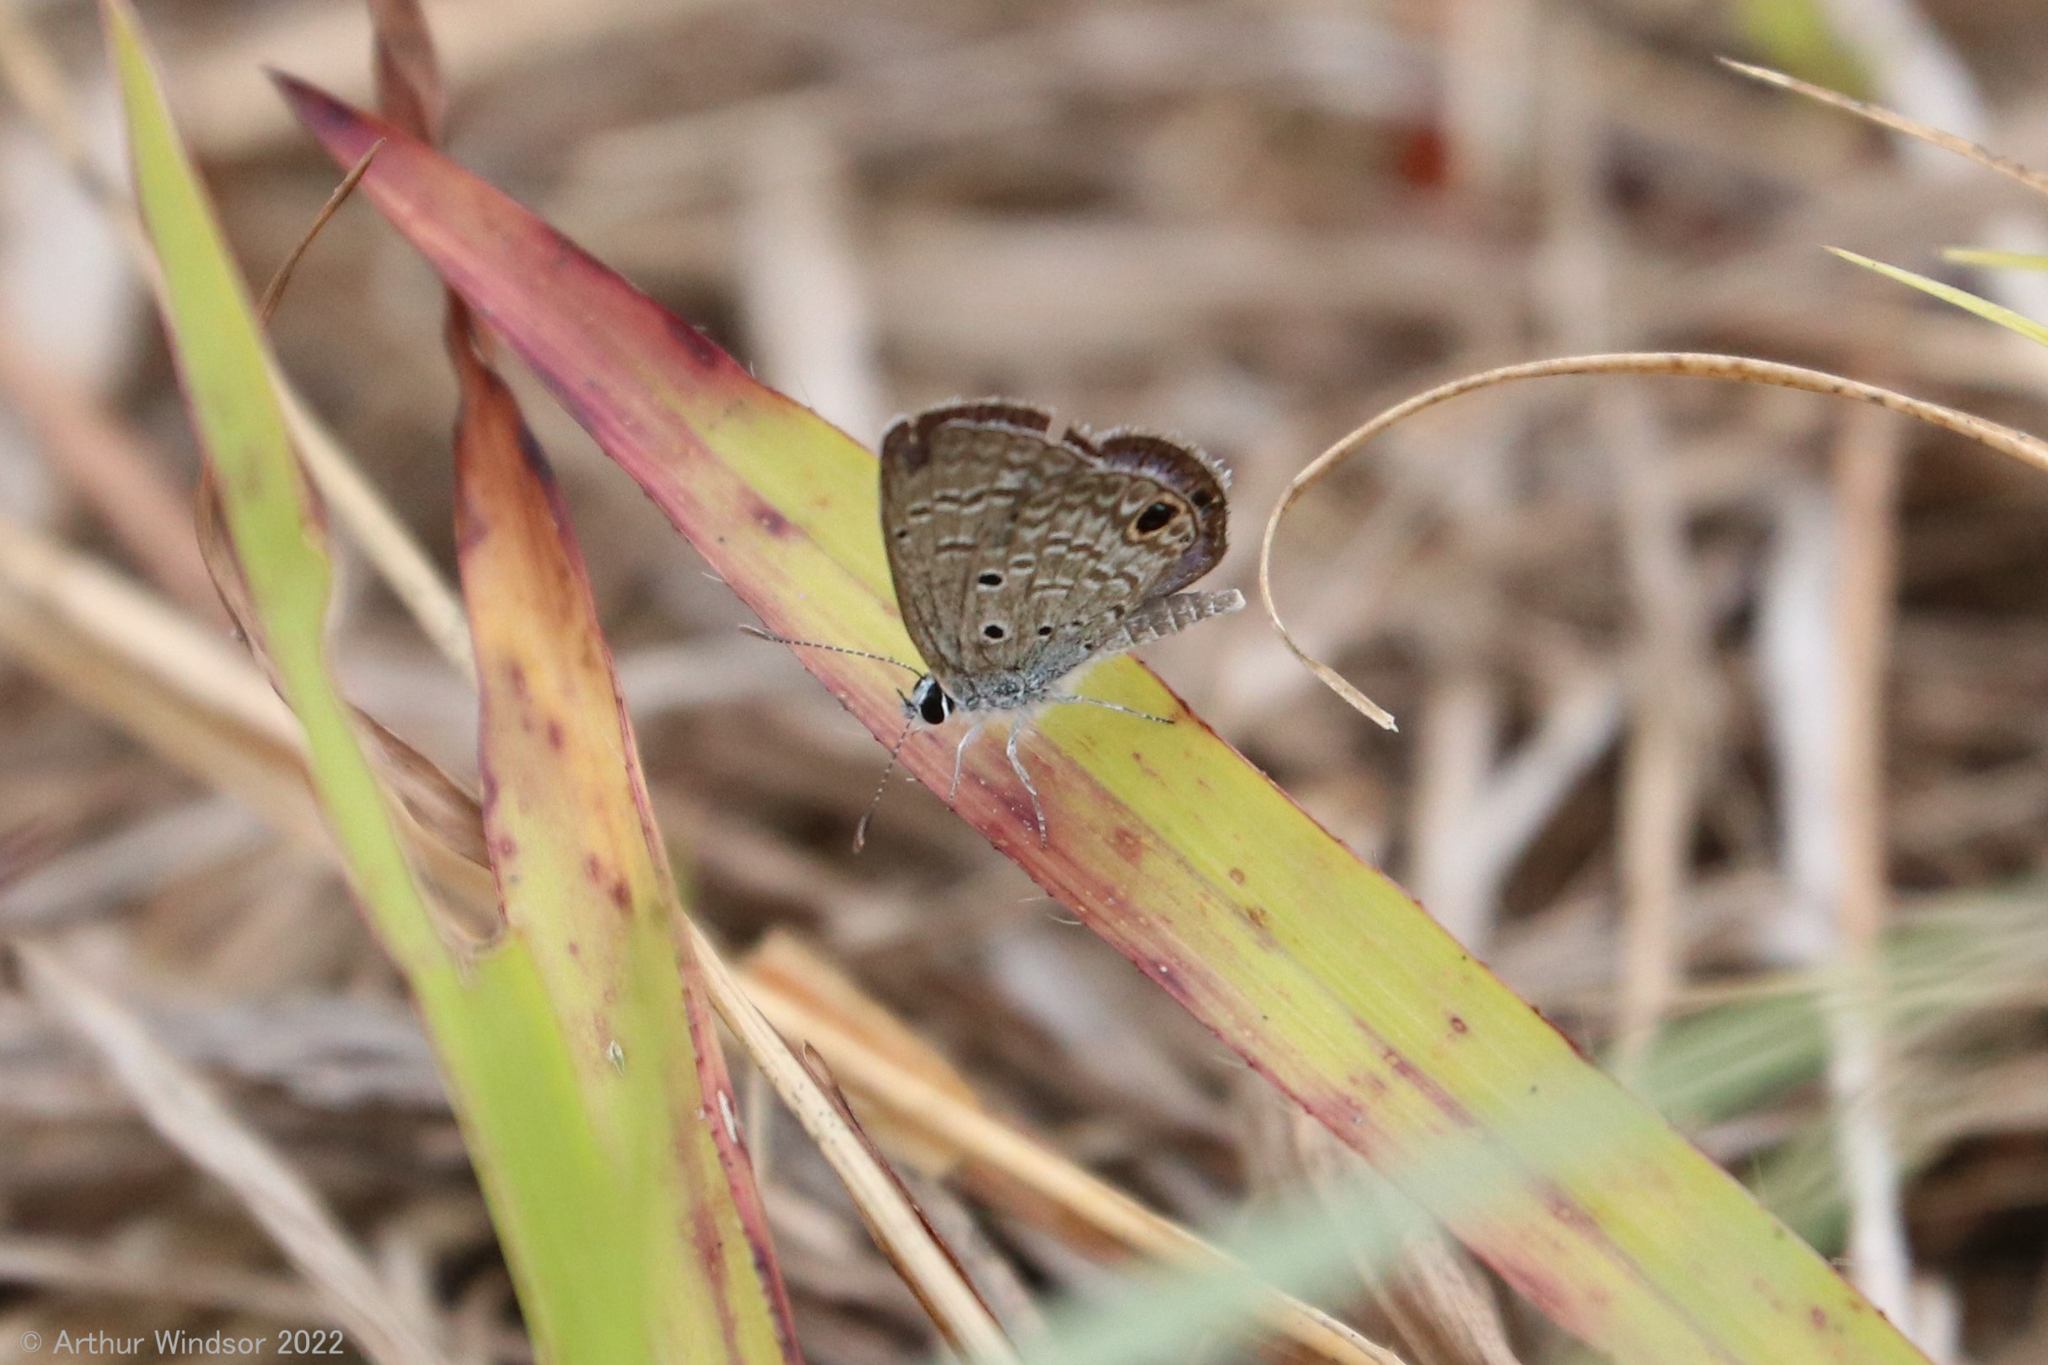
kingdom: Animalia
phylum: Arthropoda
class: Insecta
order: Lepidoptera
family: Lycaenidae
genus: Hemiargus
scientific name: Hemiargus ceraunus
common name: Ceraunus blue
